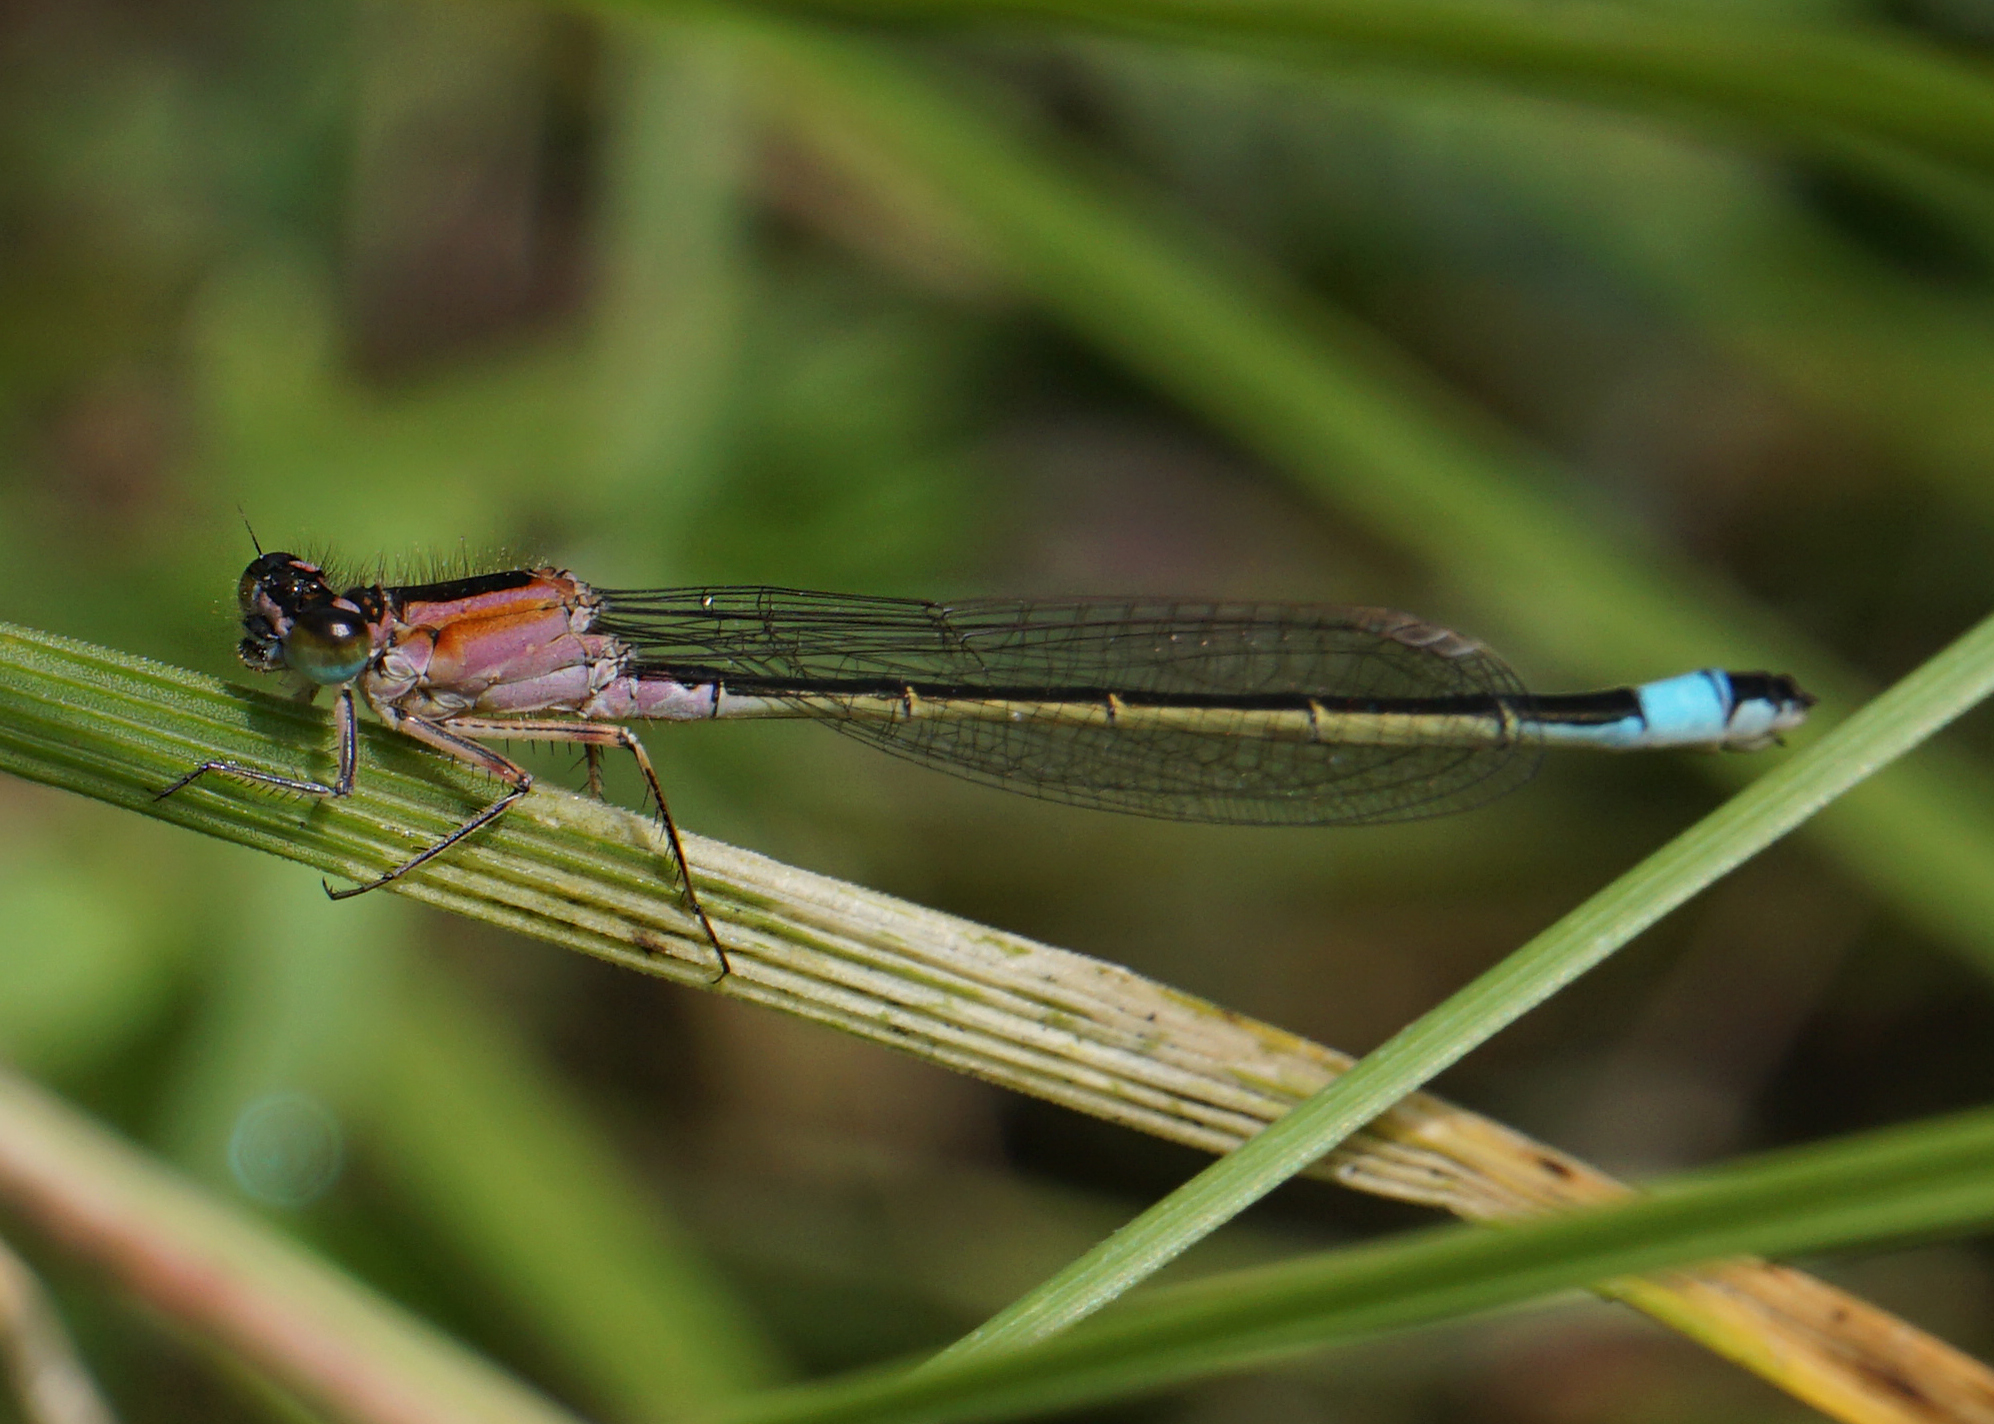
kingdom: Animalia
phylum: Arthropoda
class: Insecta
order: Odonata
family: Coenagrionidae
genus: Ischnura
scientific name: Ischnura elegans
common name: Blue-tailed damselfly
